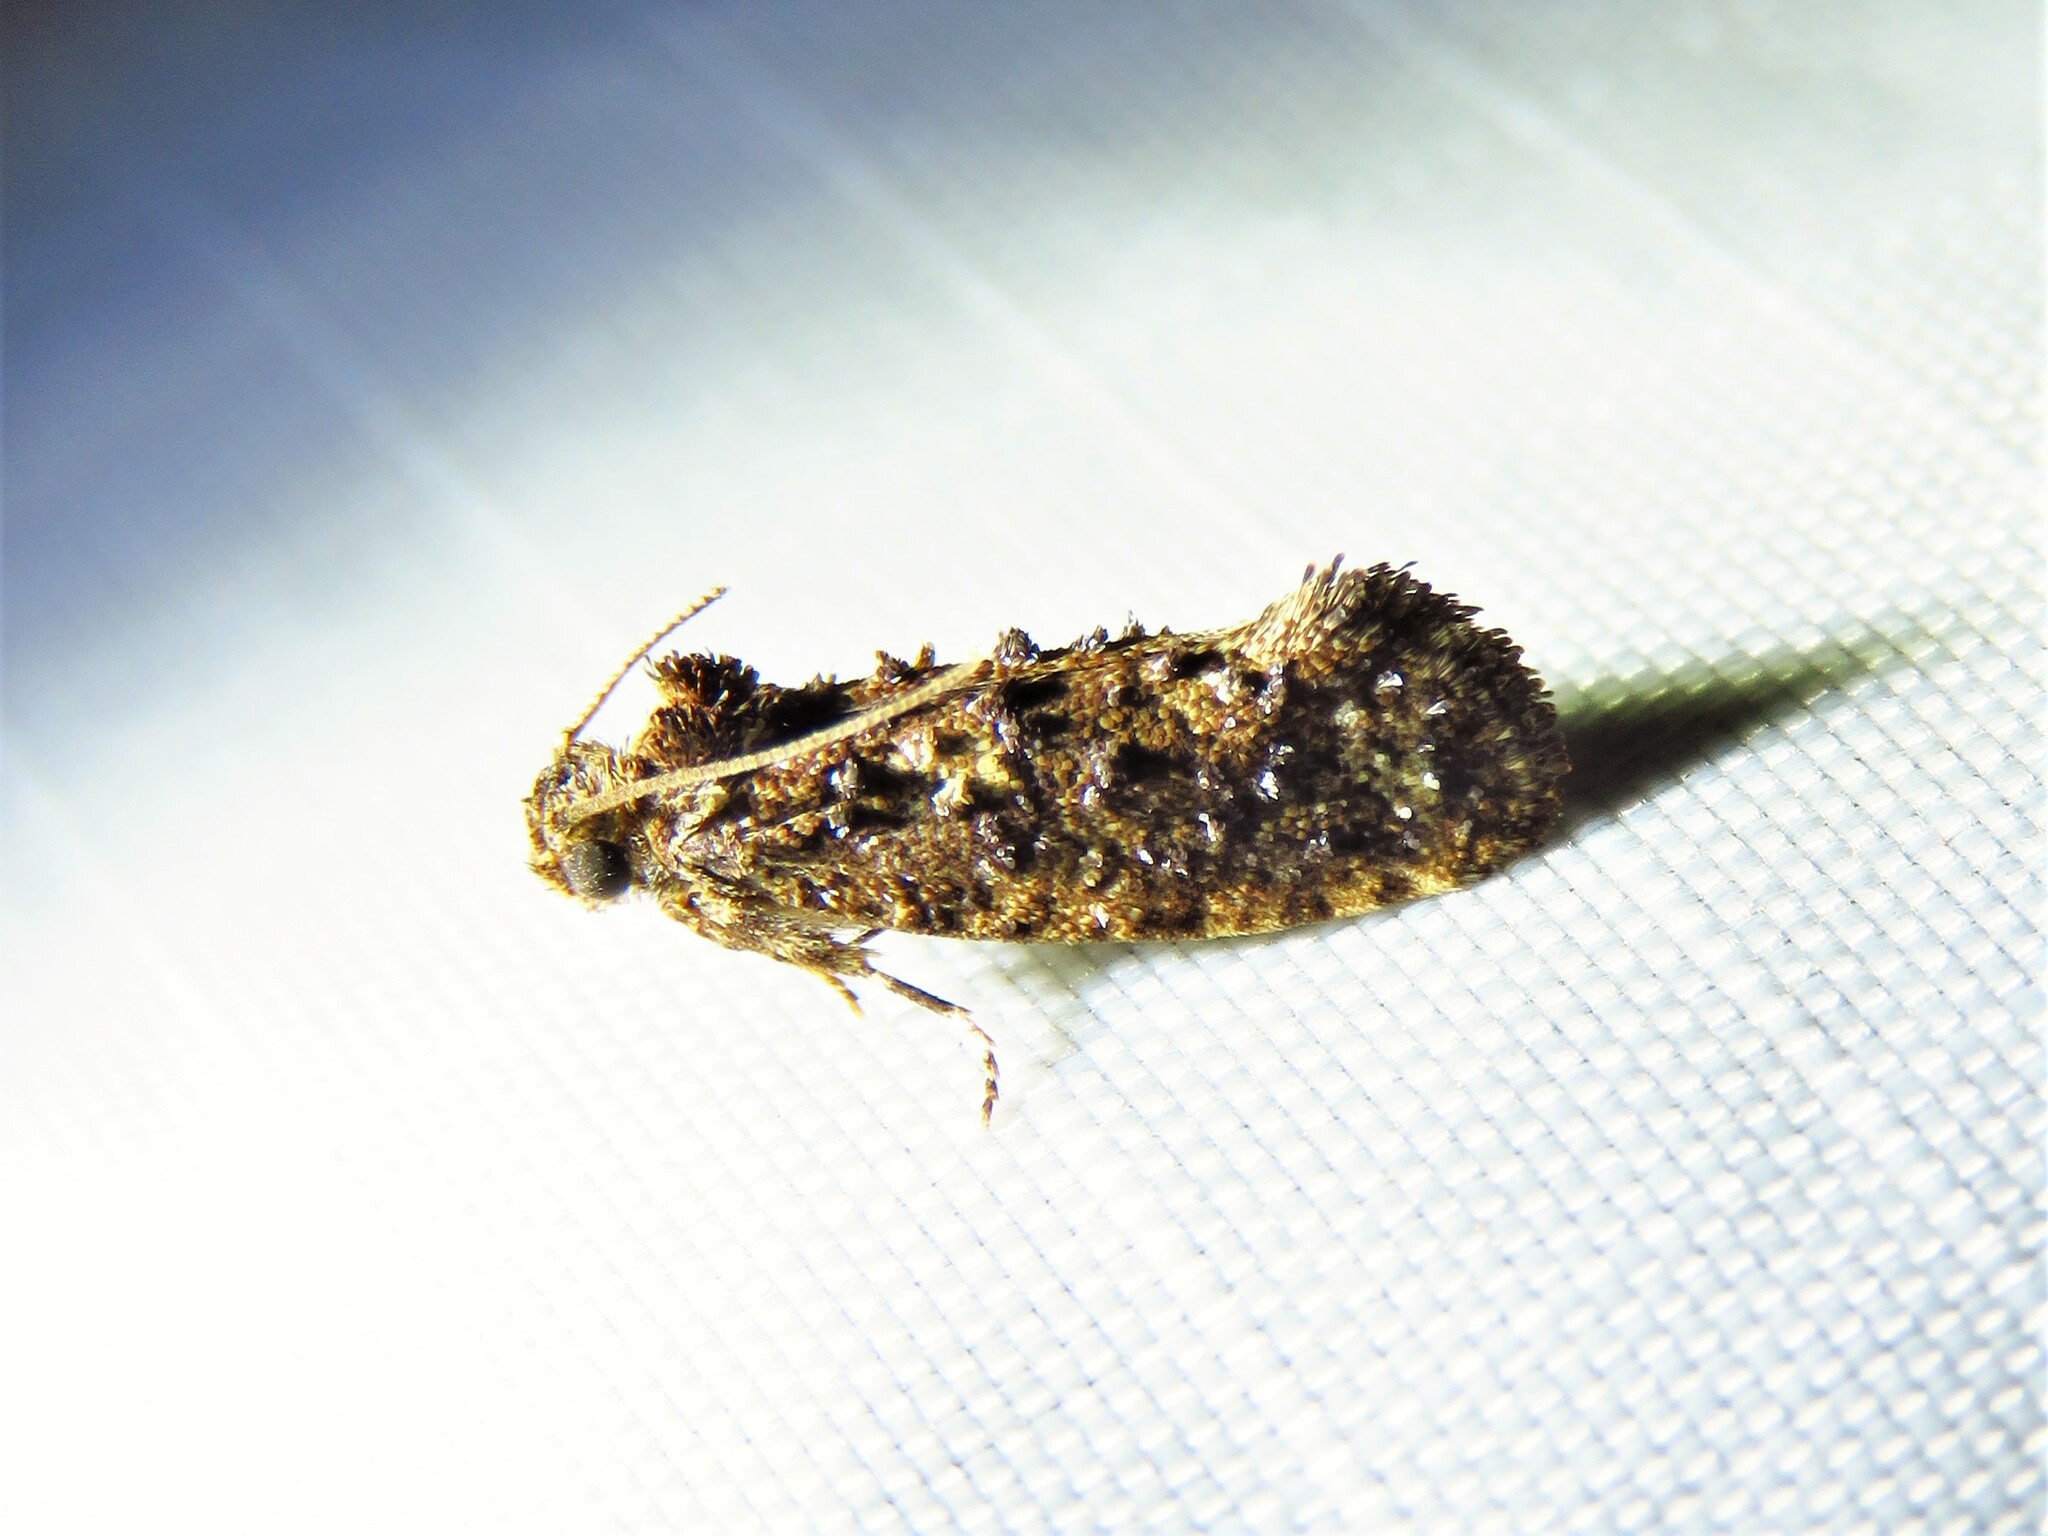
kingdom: Animalia
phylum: Arthropoda
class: Insecta
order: Lepidoptera
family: Tineidae
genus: Acrolophus
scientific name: Acrolophus cressoni
